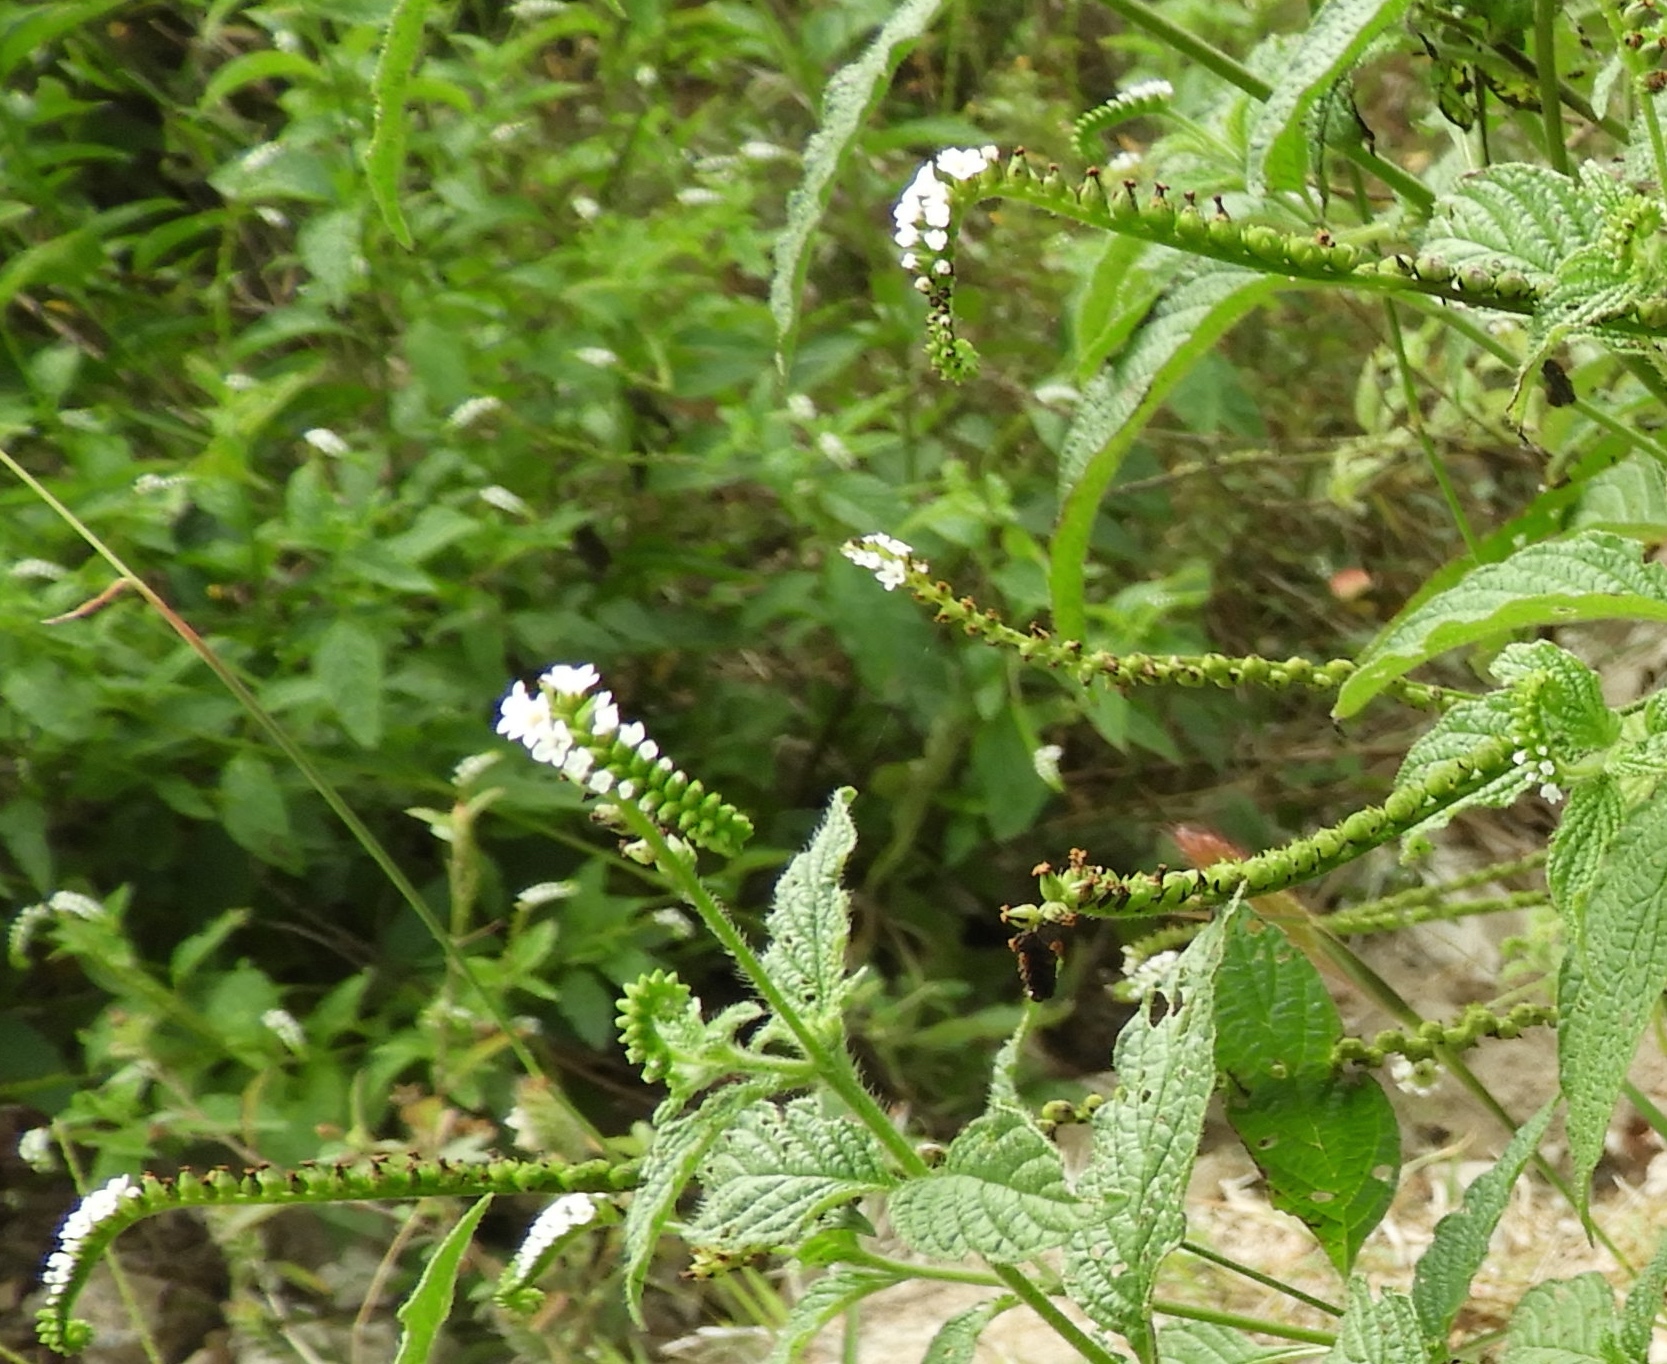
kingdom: Plantae
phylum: Tracheophyta
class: Magnoliopsida
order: Boraginales
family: Heliotropiaceae
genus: Heliotropium
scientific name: Heliotropium angiospermum
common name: Eye bright
